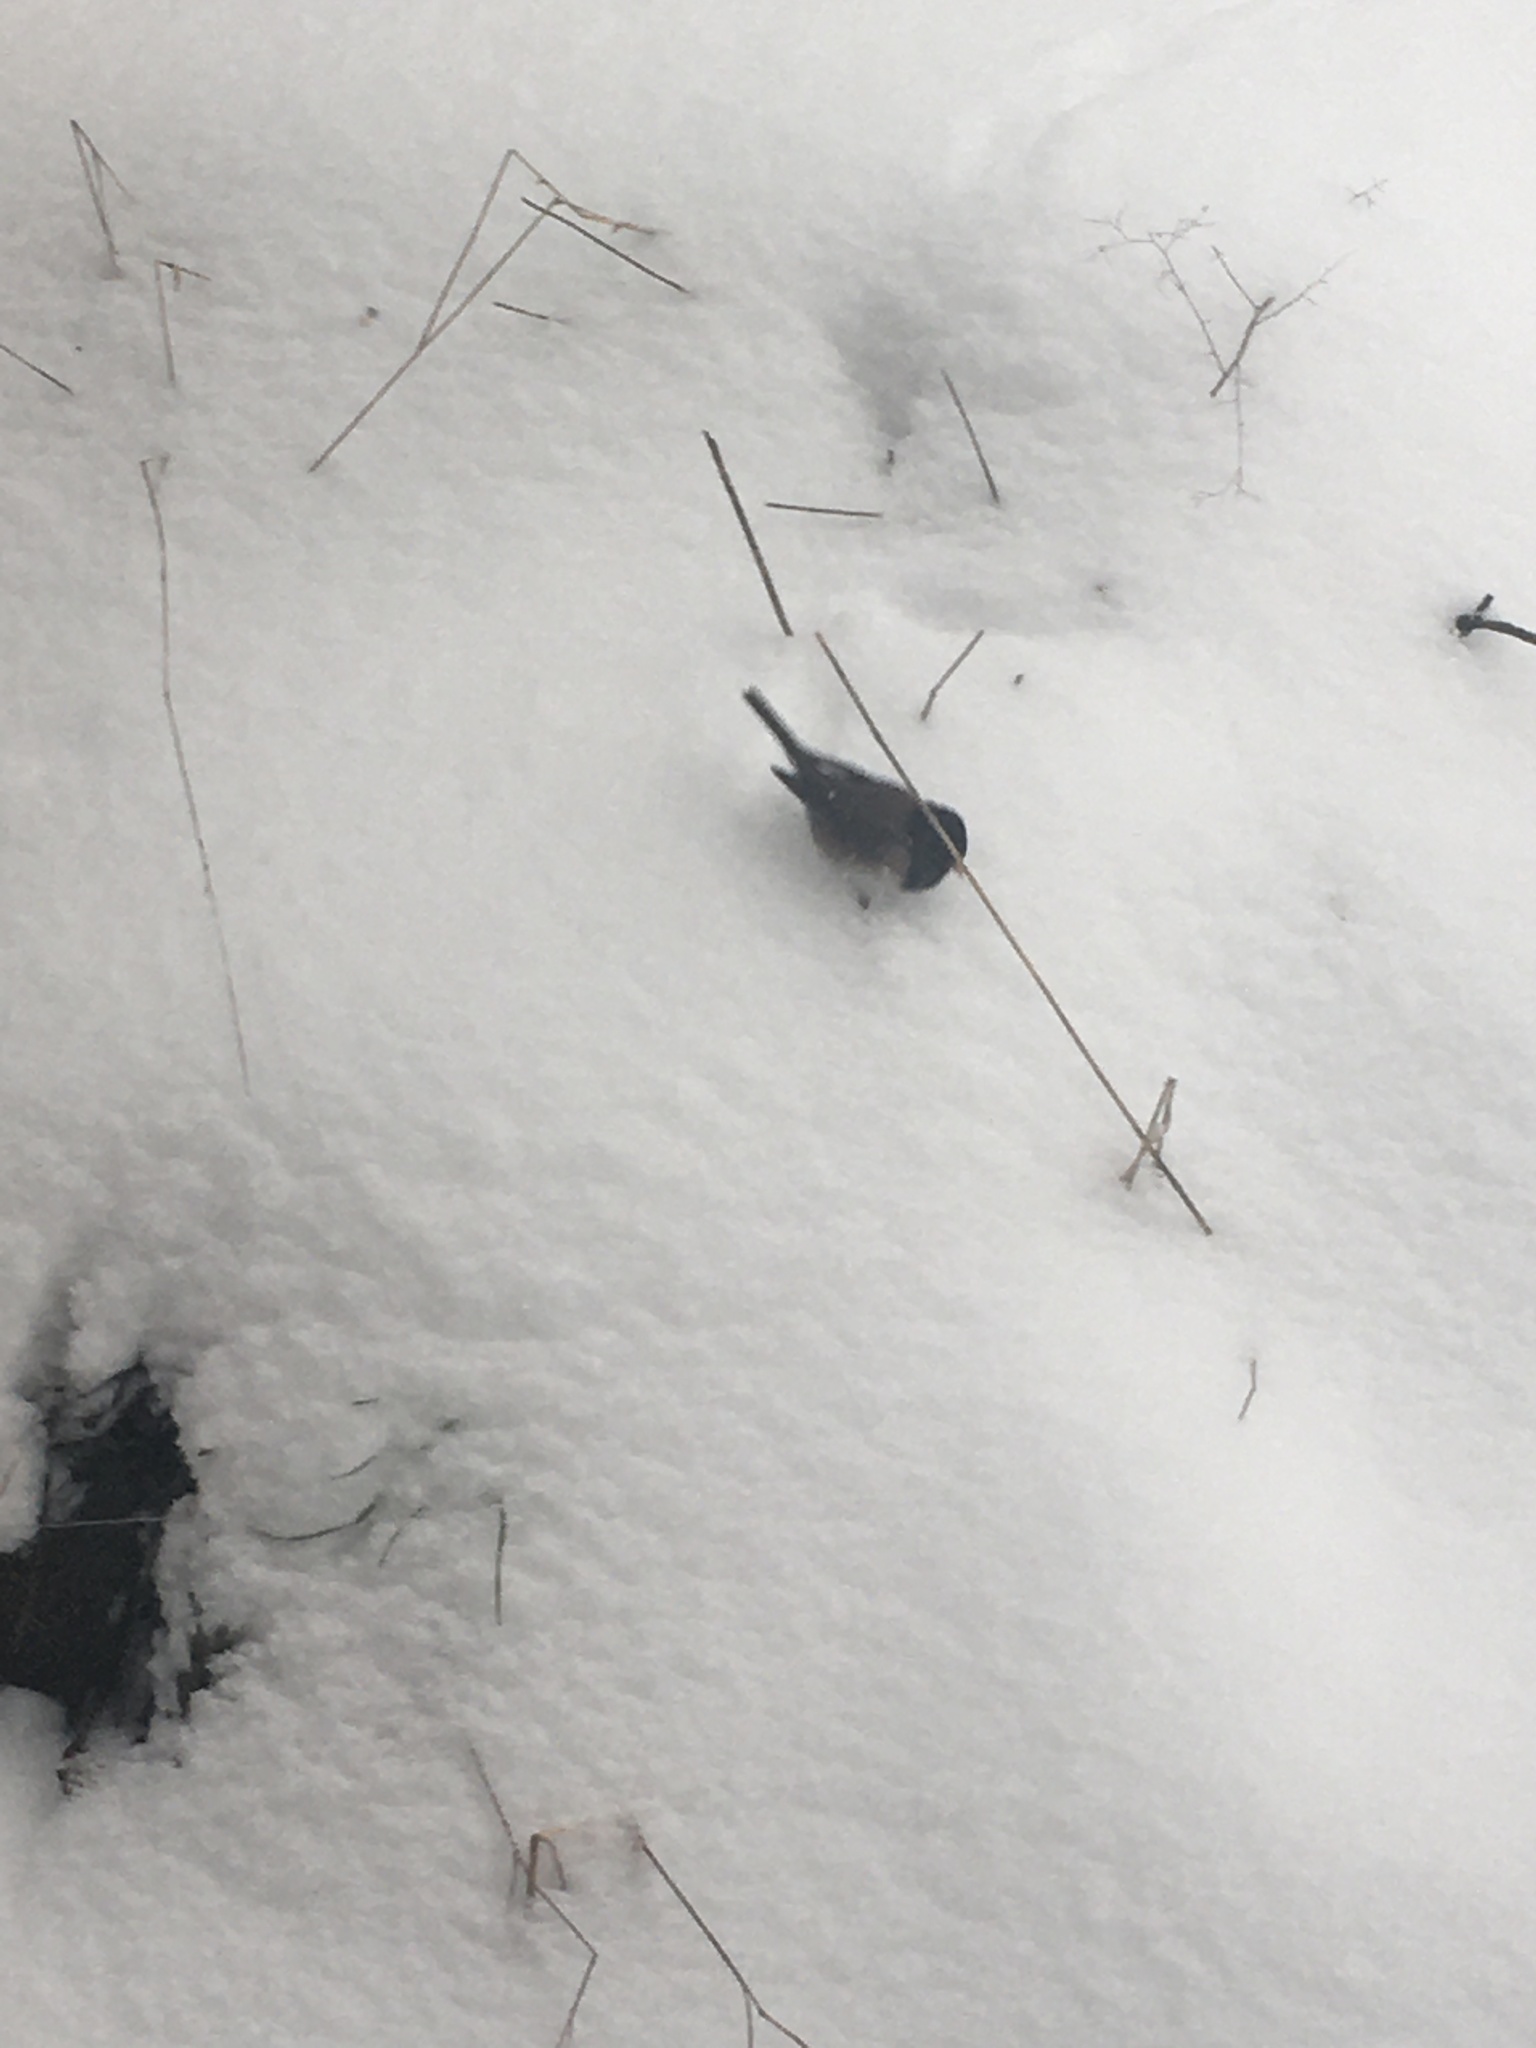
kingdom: Animalia
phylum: Chordata
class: Aves
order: Passeriformes
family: Passerellidae
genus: Junco
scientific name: Junco hyemalis
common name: Dark-eyed junco
